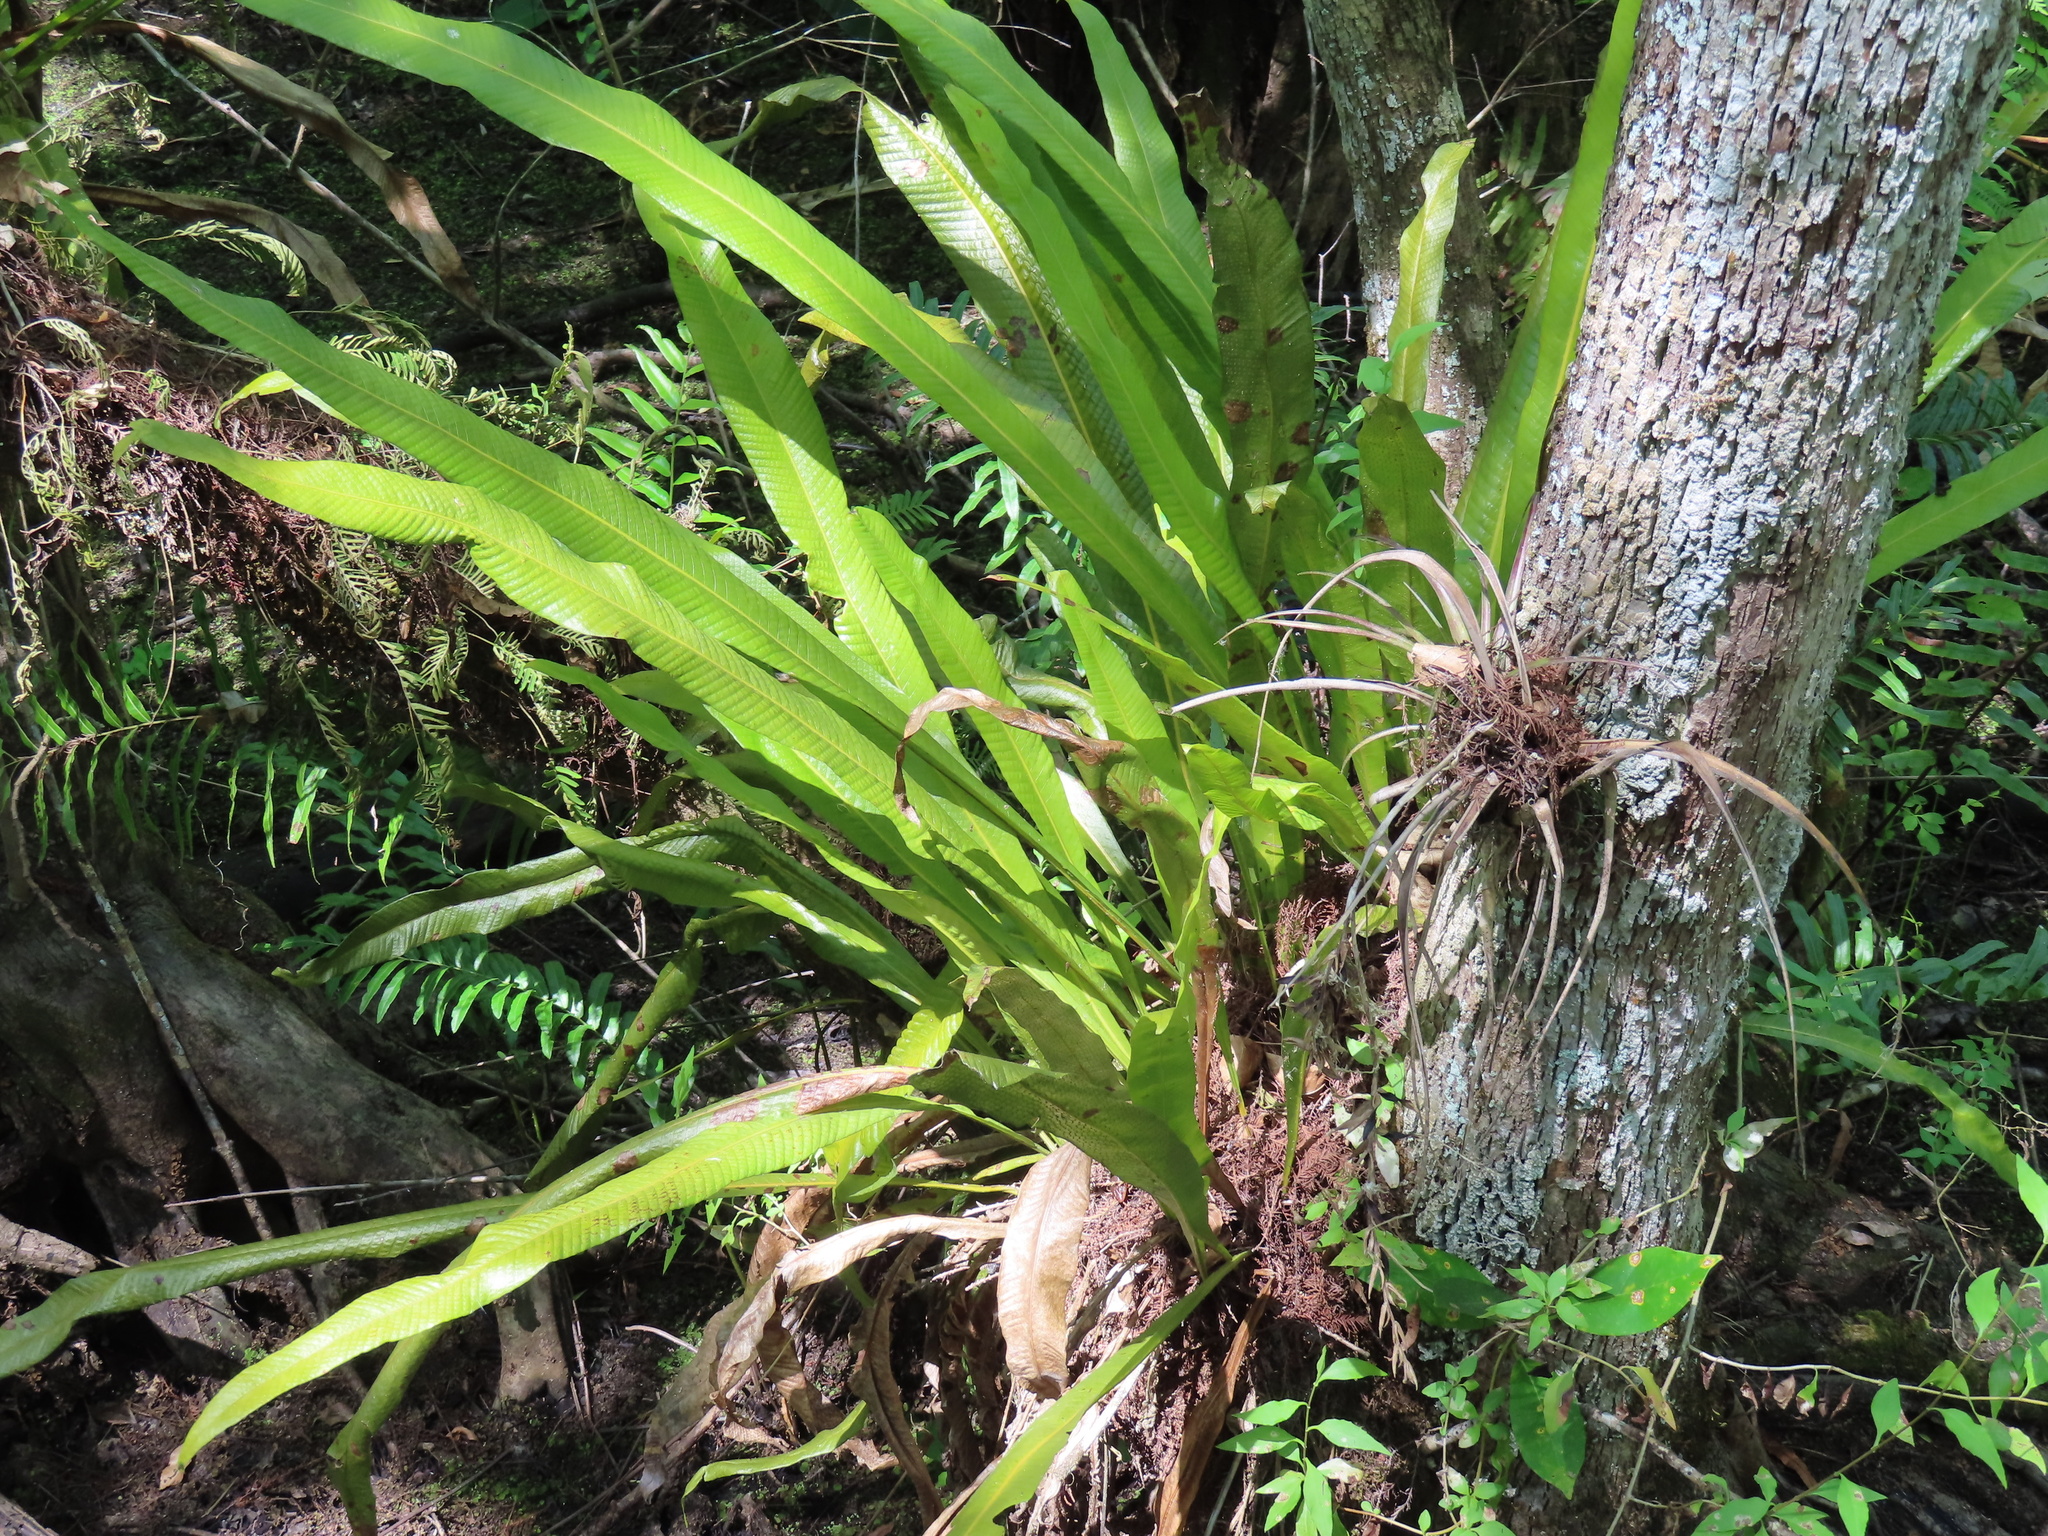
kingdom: Plantae
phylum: Tracheophyta
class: Polypodiopsida
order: Polypodiales
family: Polypodiaceae
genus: Campyloneurum
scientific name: Campyloneurum phyllitidis
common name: Cow-tongue fern
